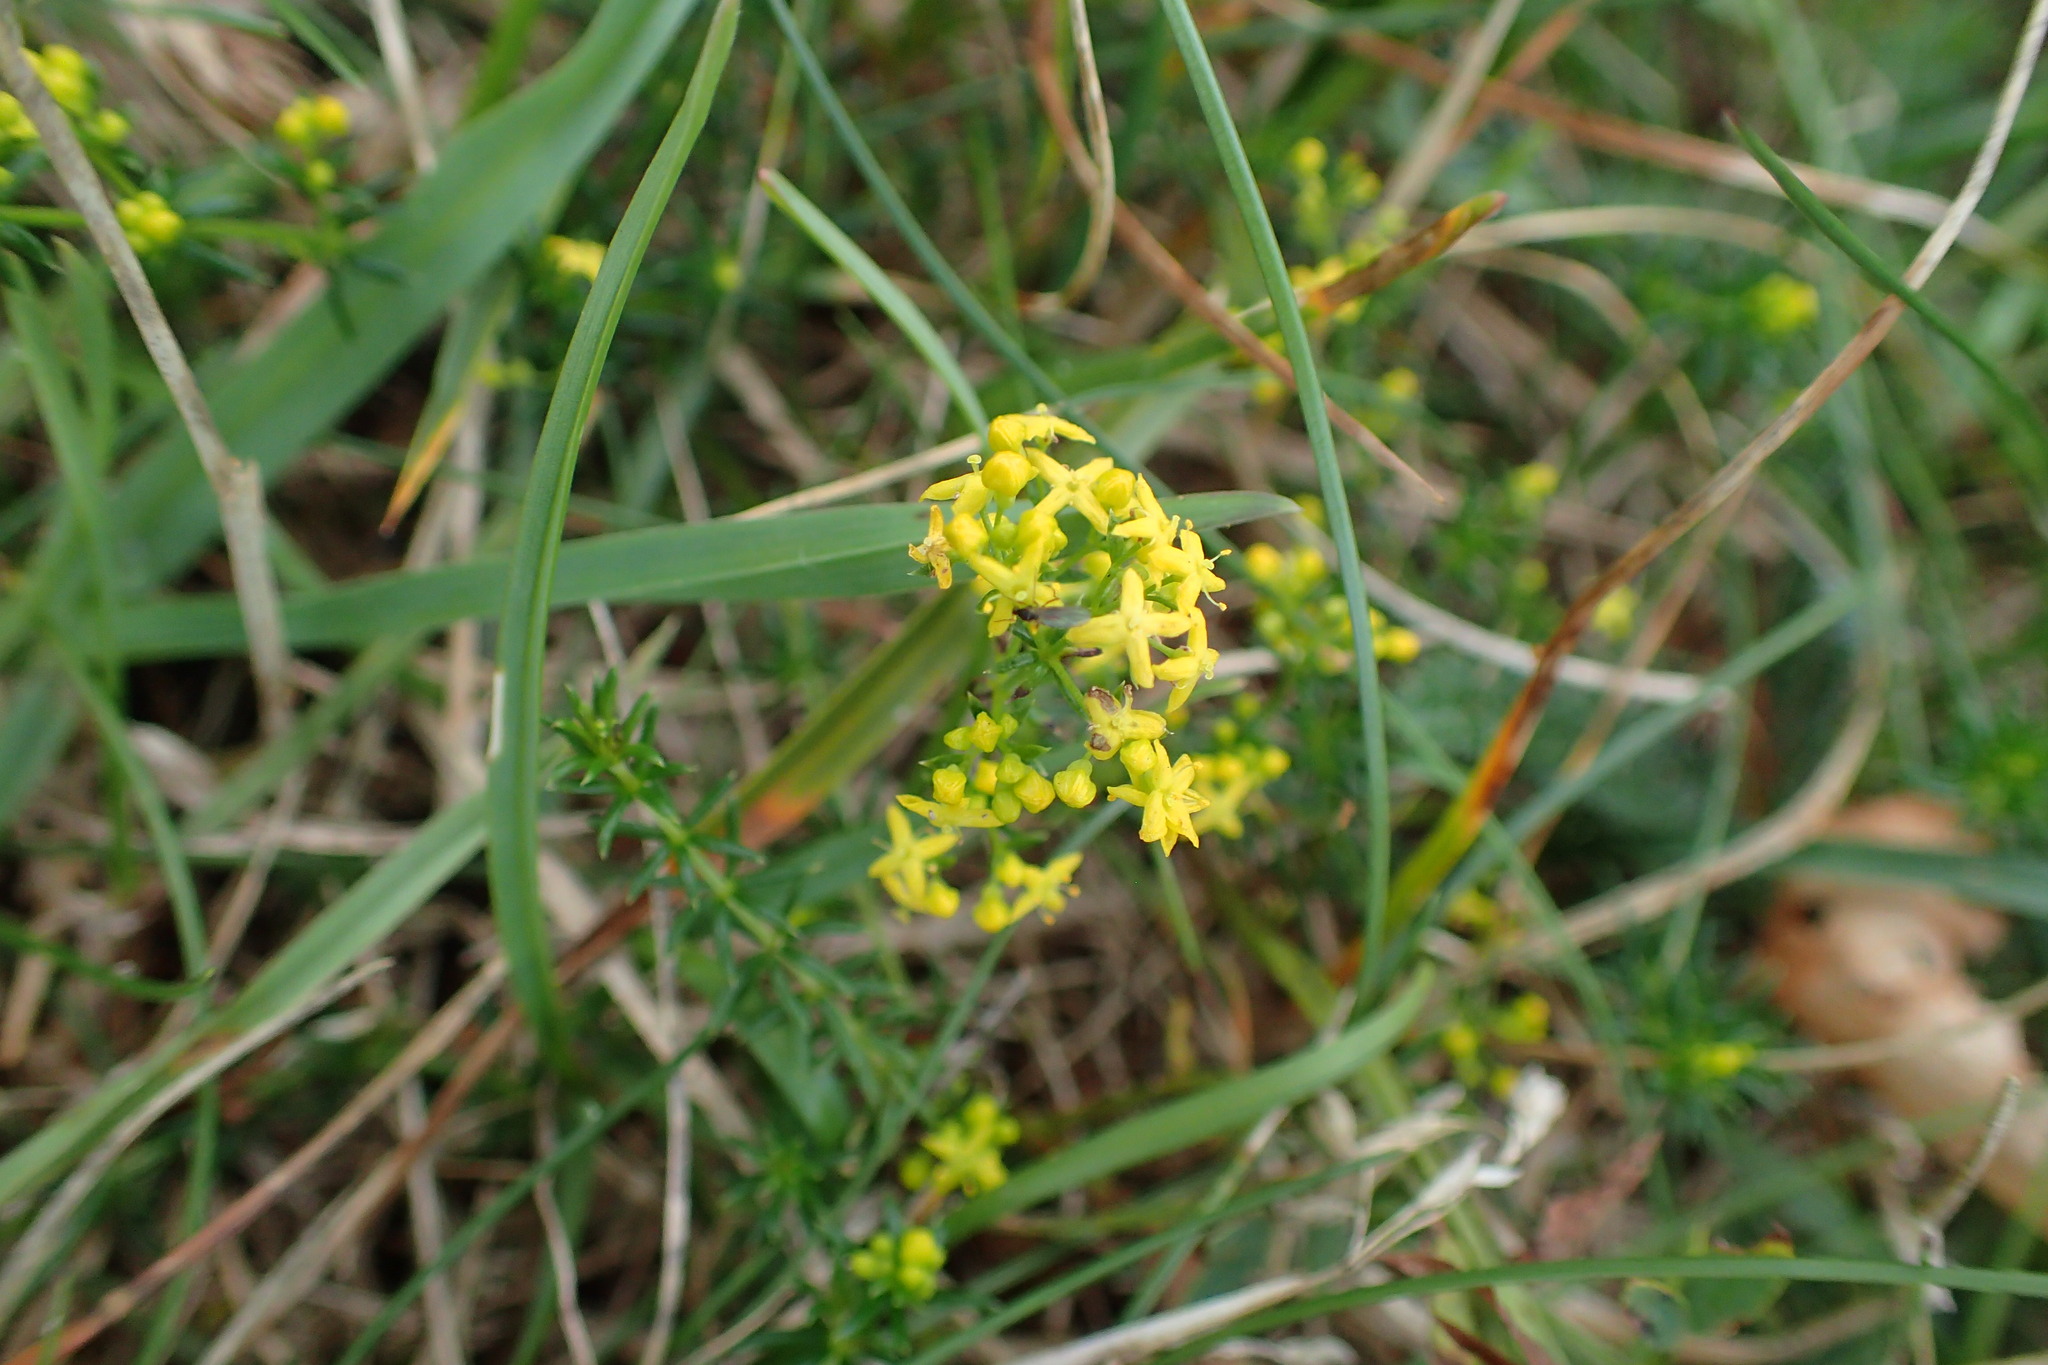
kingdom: Plantae
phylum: Tracheophyta
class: Magnoliopsida
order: Gentianales
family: Rubiaceae
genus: Galium
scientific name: Galium verum
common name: Lady's bedstraw
